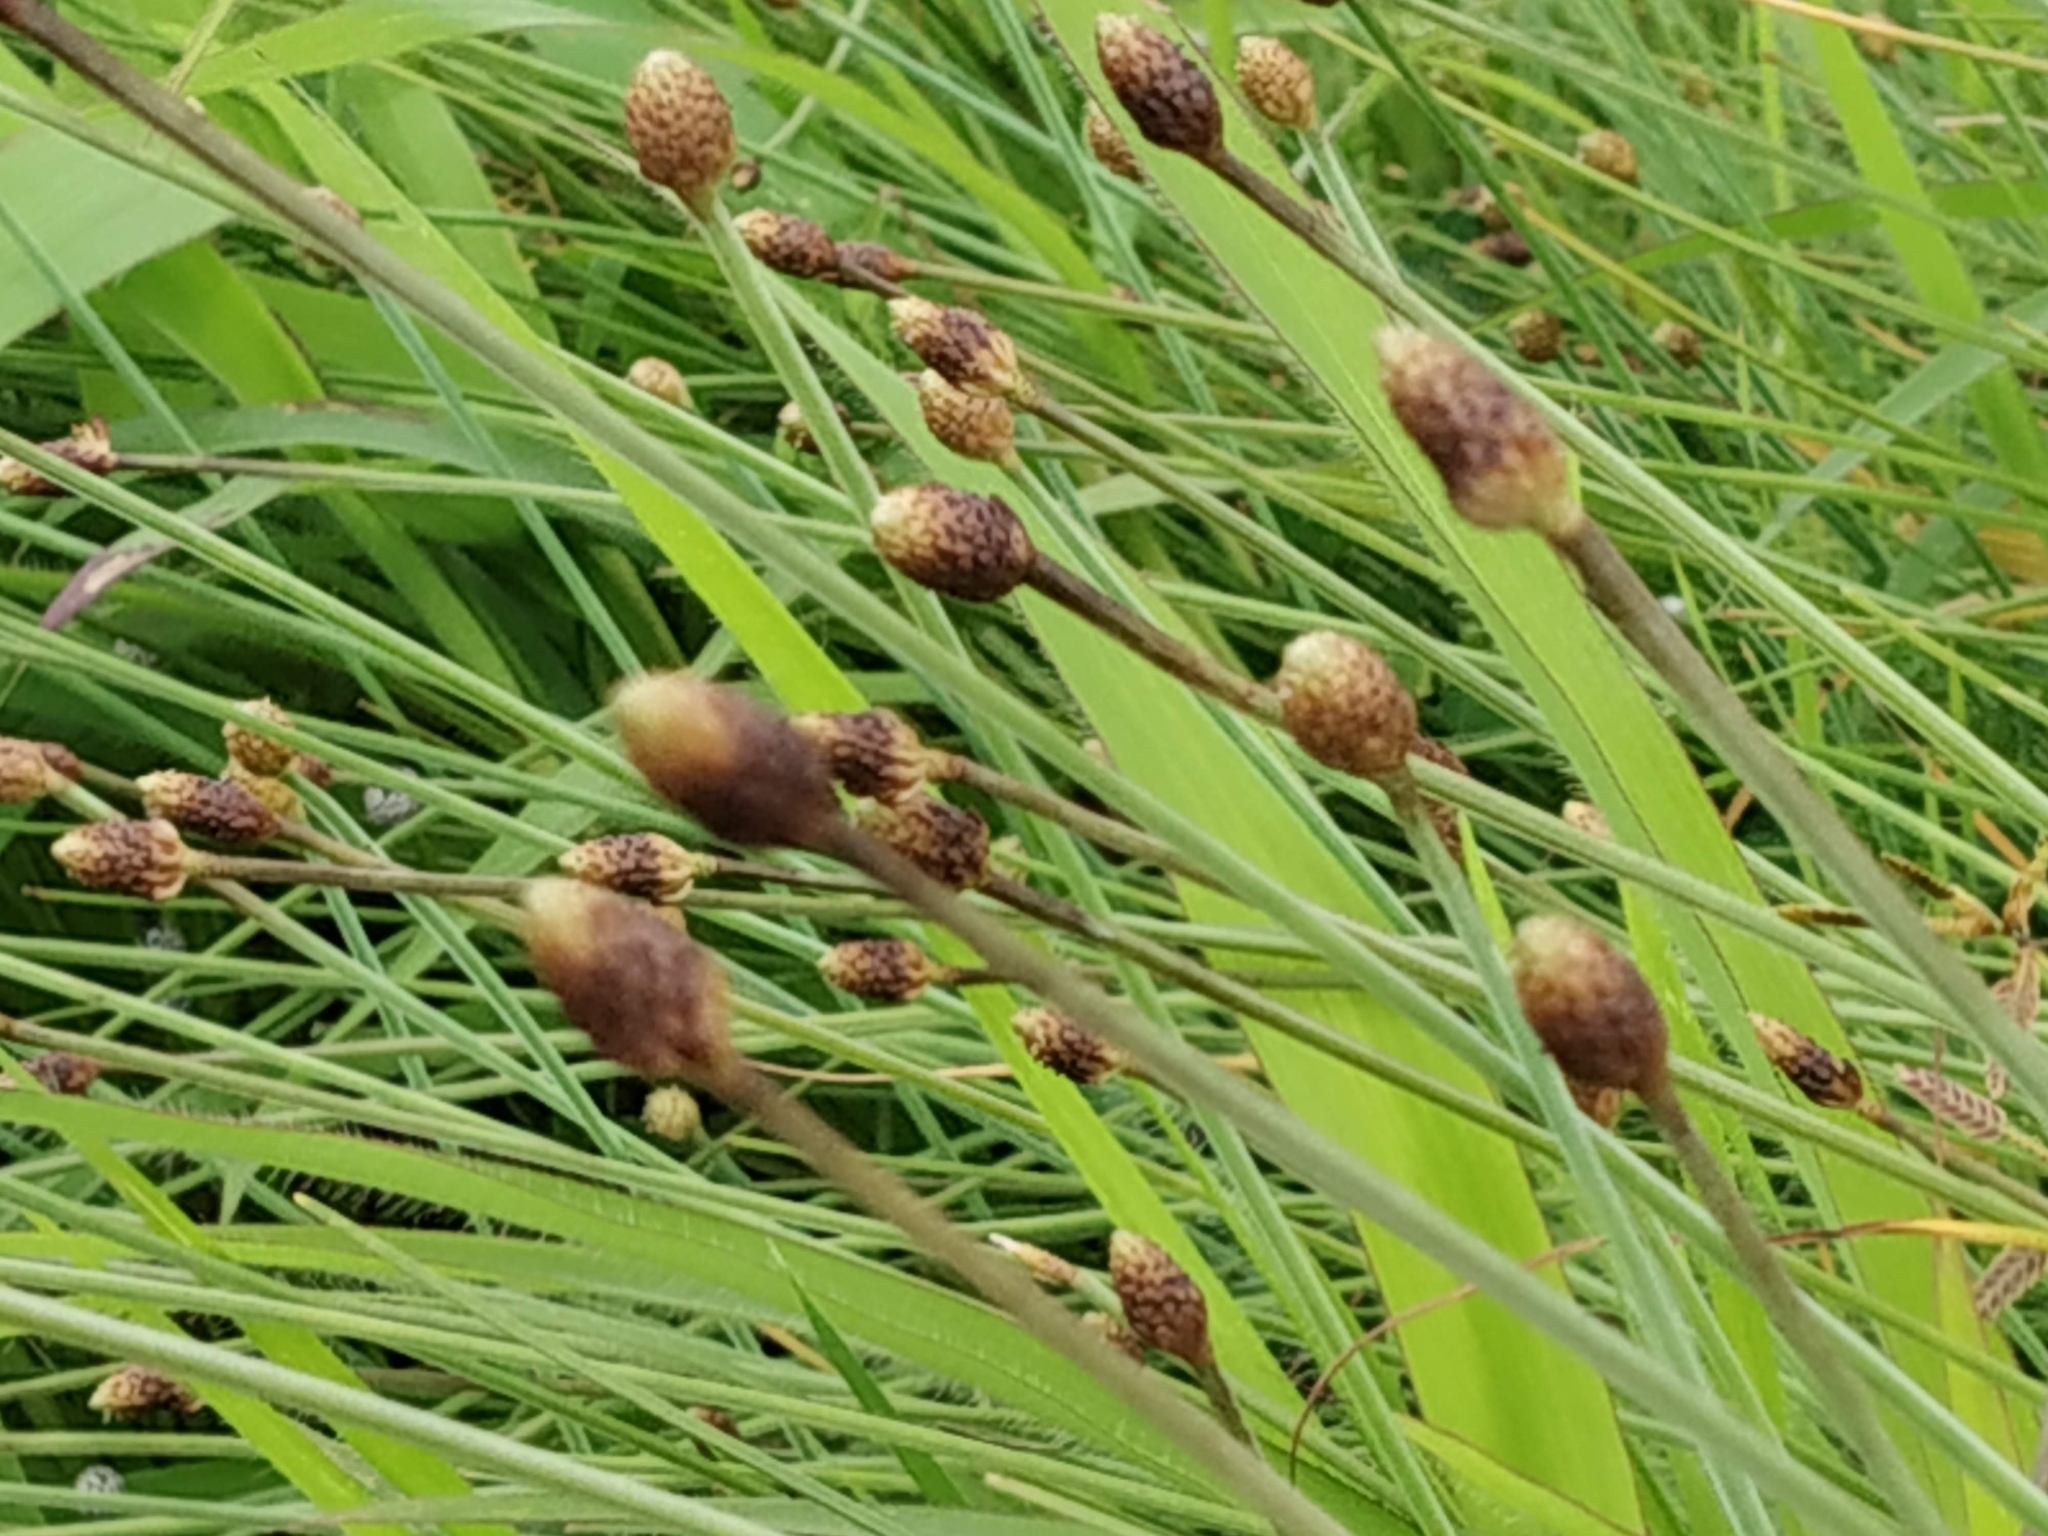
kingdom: Plantae
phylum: Tracheophyta
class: Liliopsida
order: Poales
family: Cyperaceae
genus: Fimbristylis
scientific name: Fimbristylis tetragona
